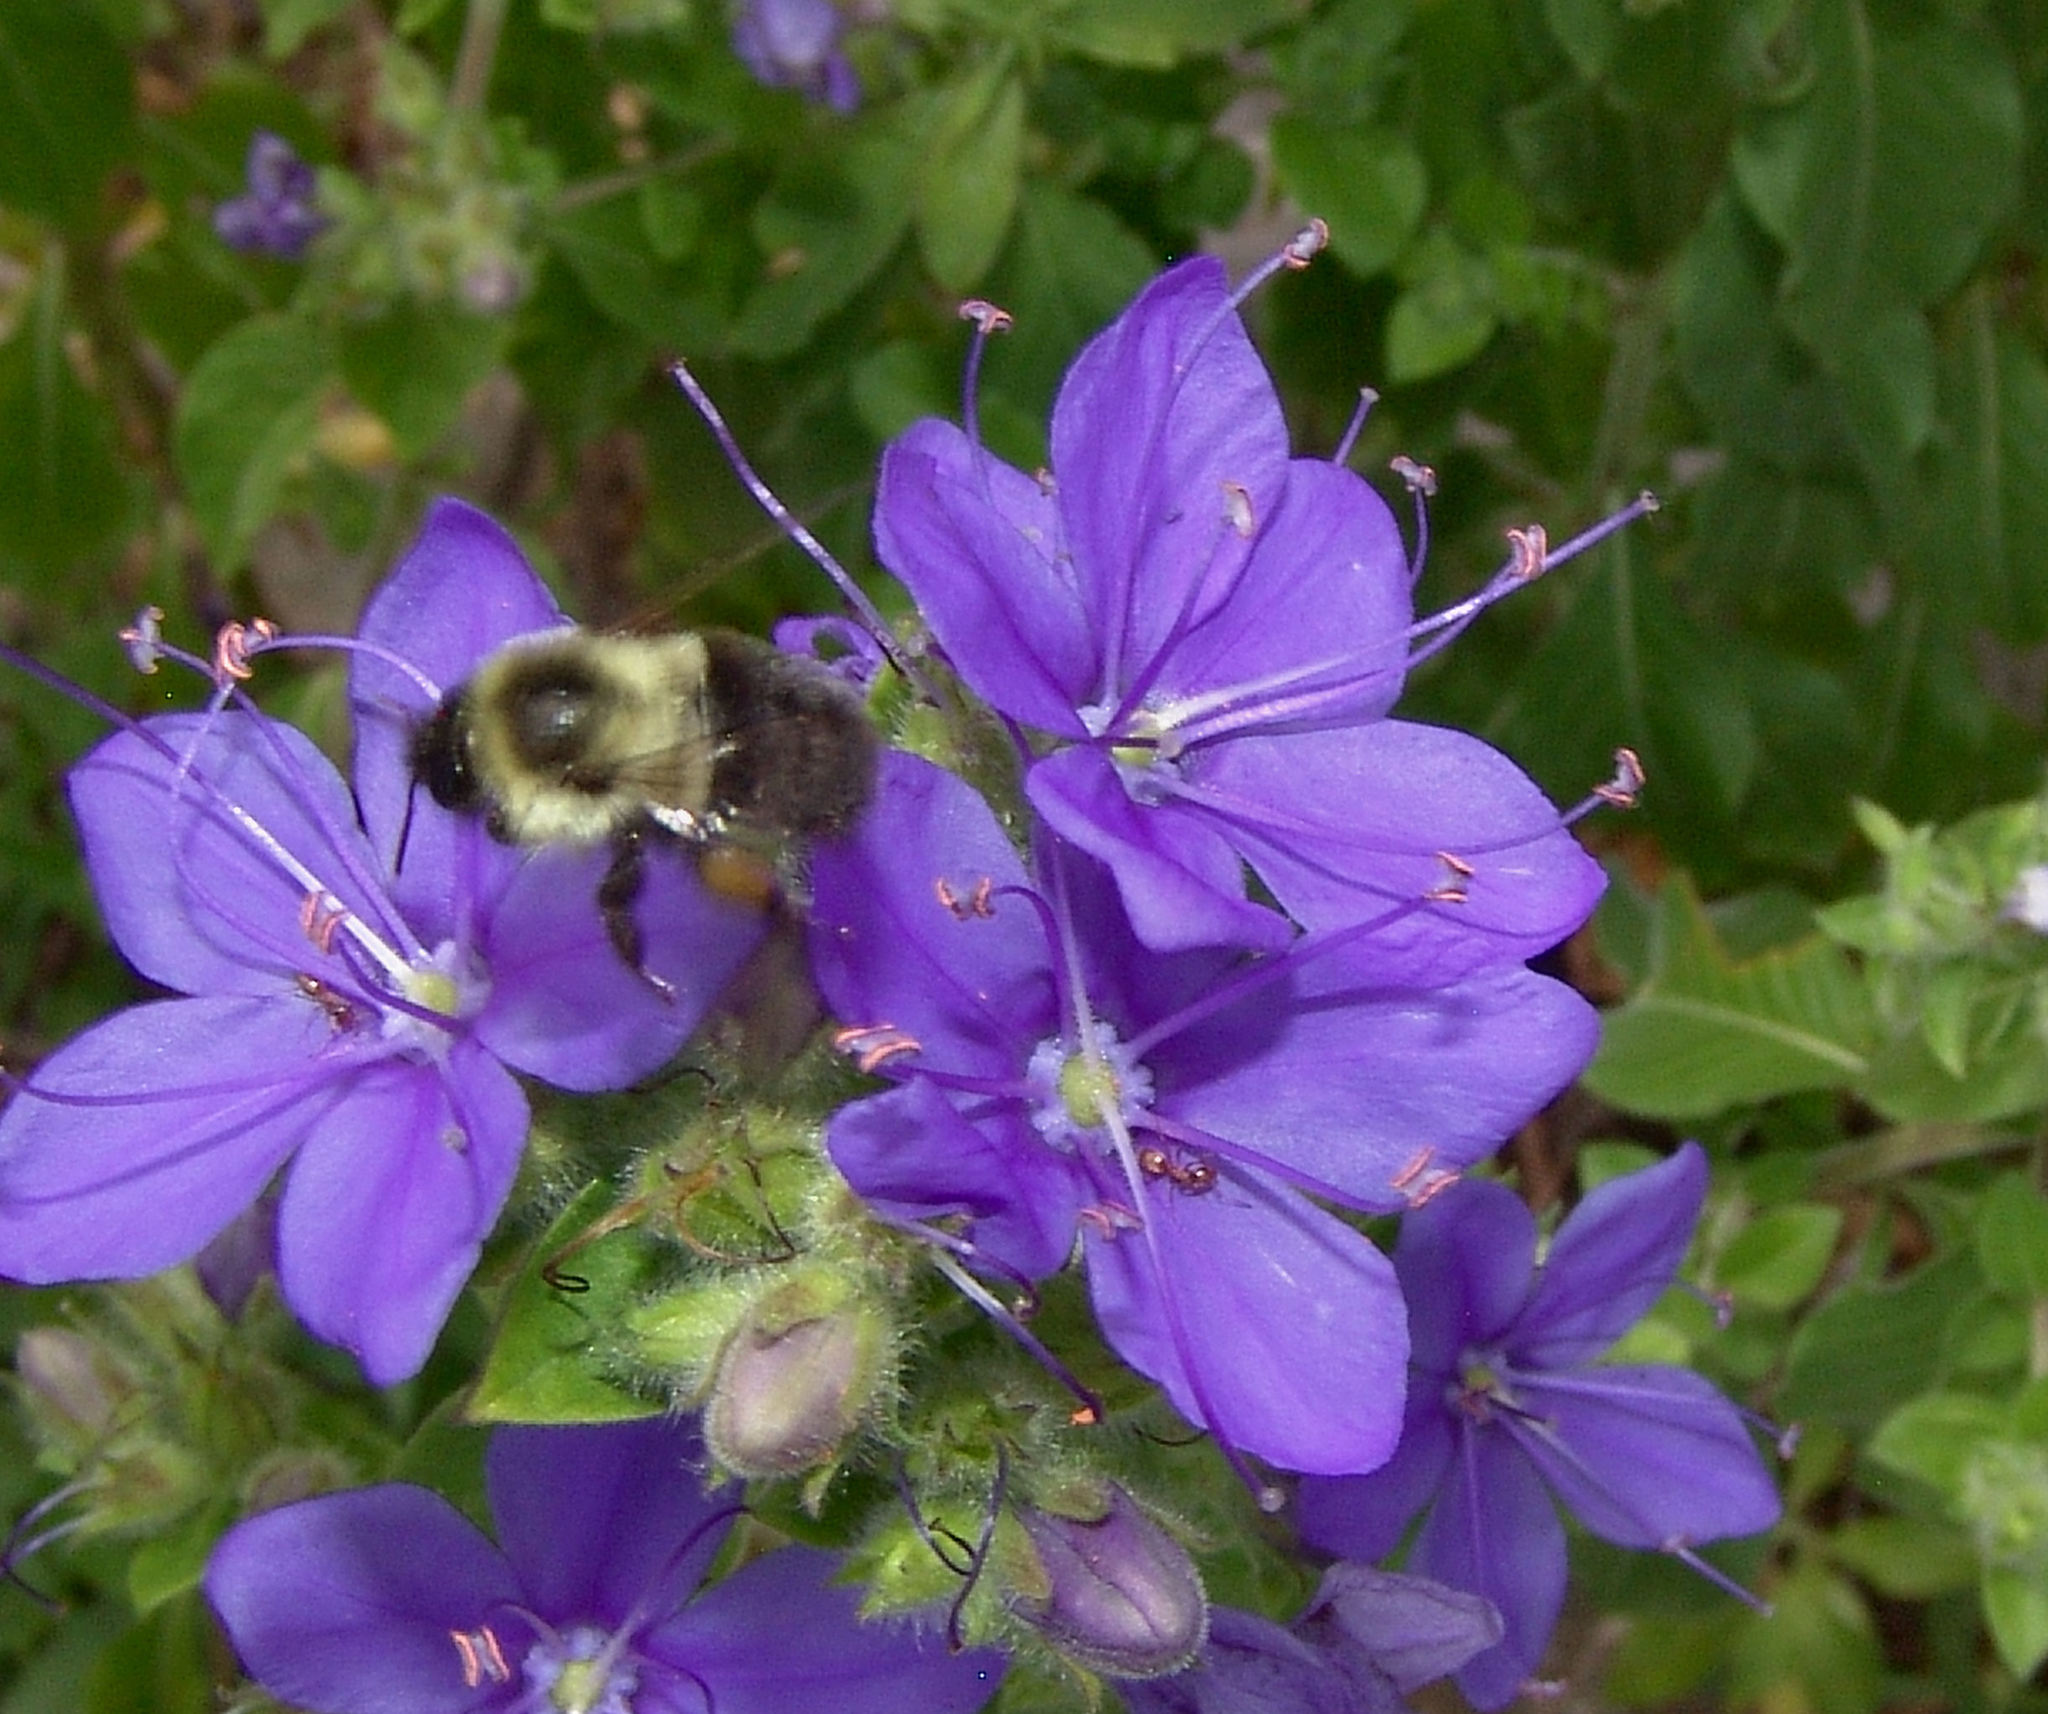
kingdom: Animalia
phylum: Arthropoda
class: Insecta
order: Hymenoptera
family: Apidae
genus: Bombus
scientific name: Bombus impatiens
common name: Common eastern bumble bee
